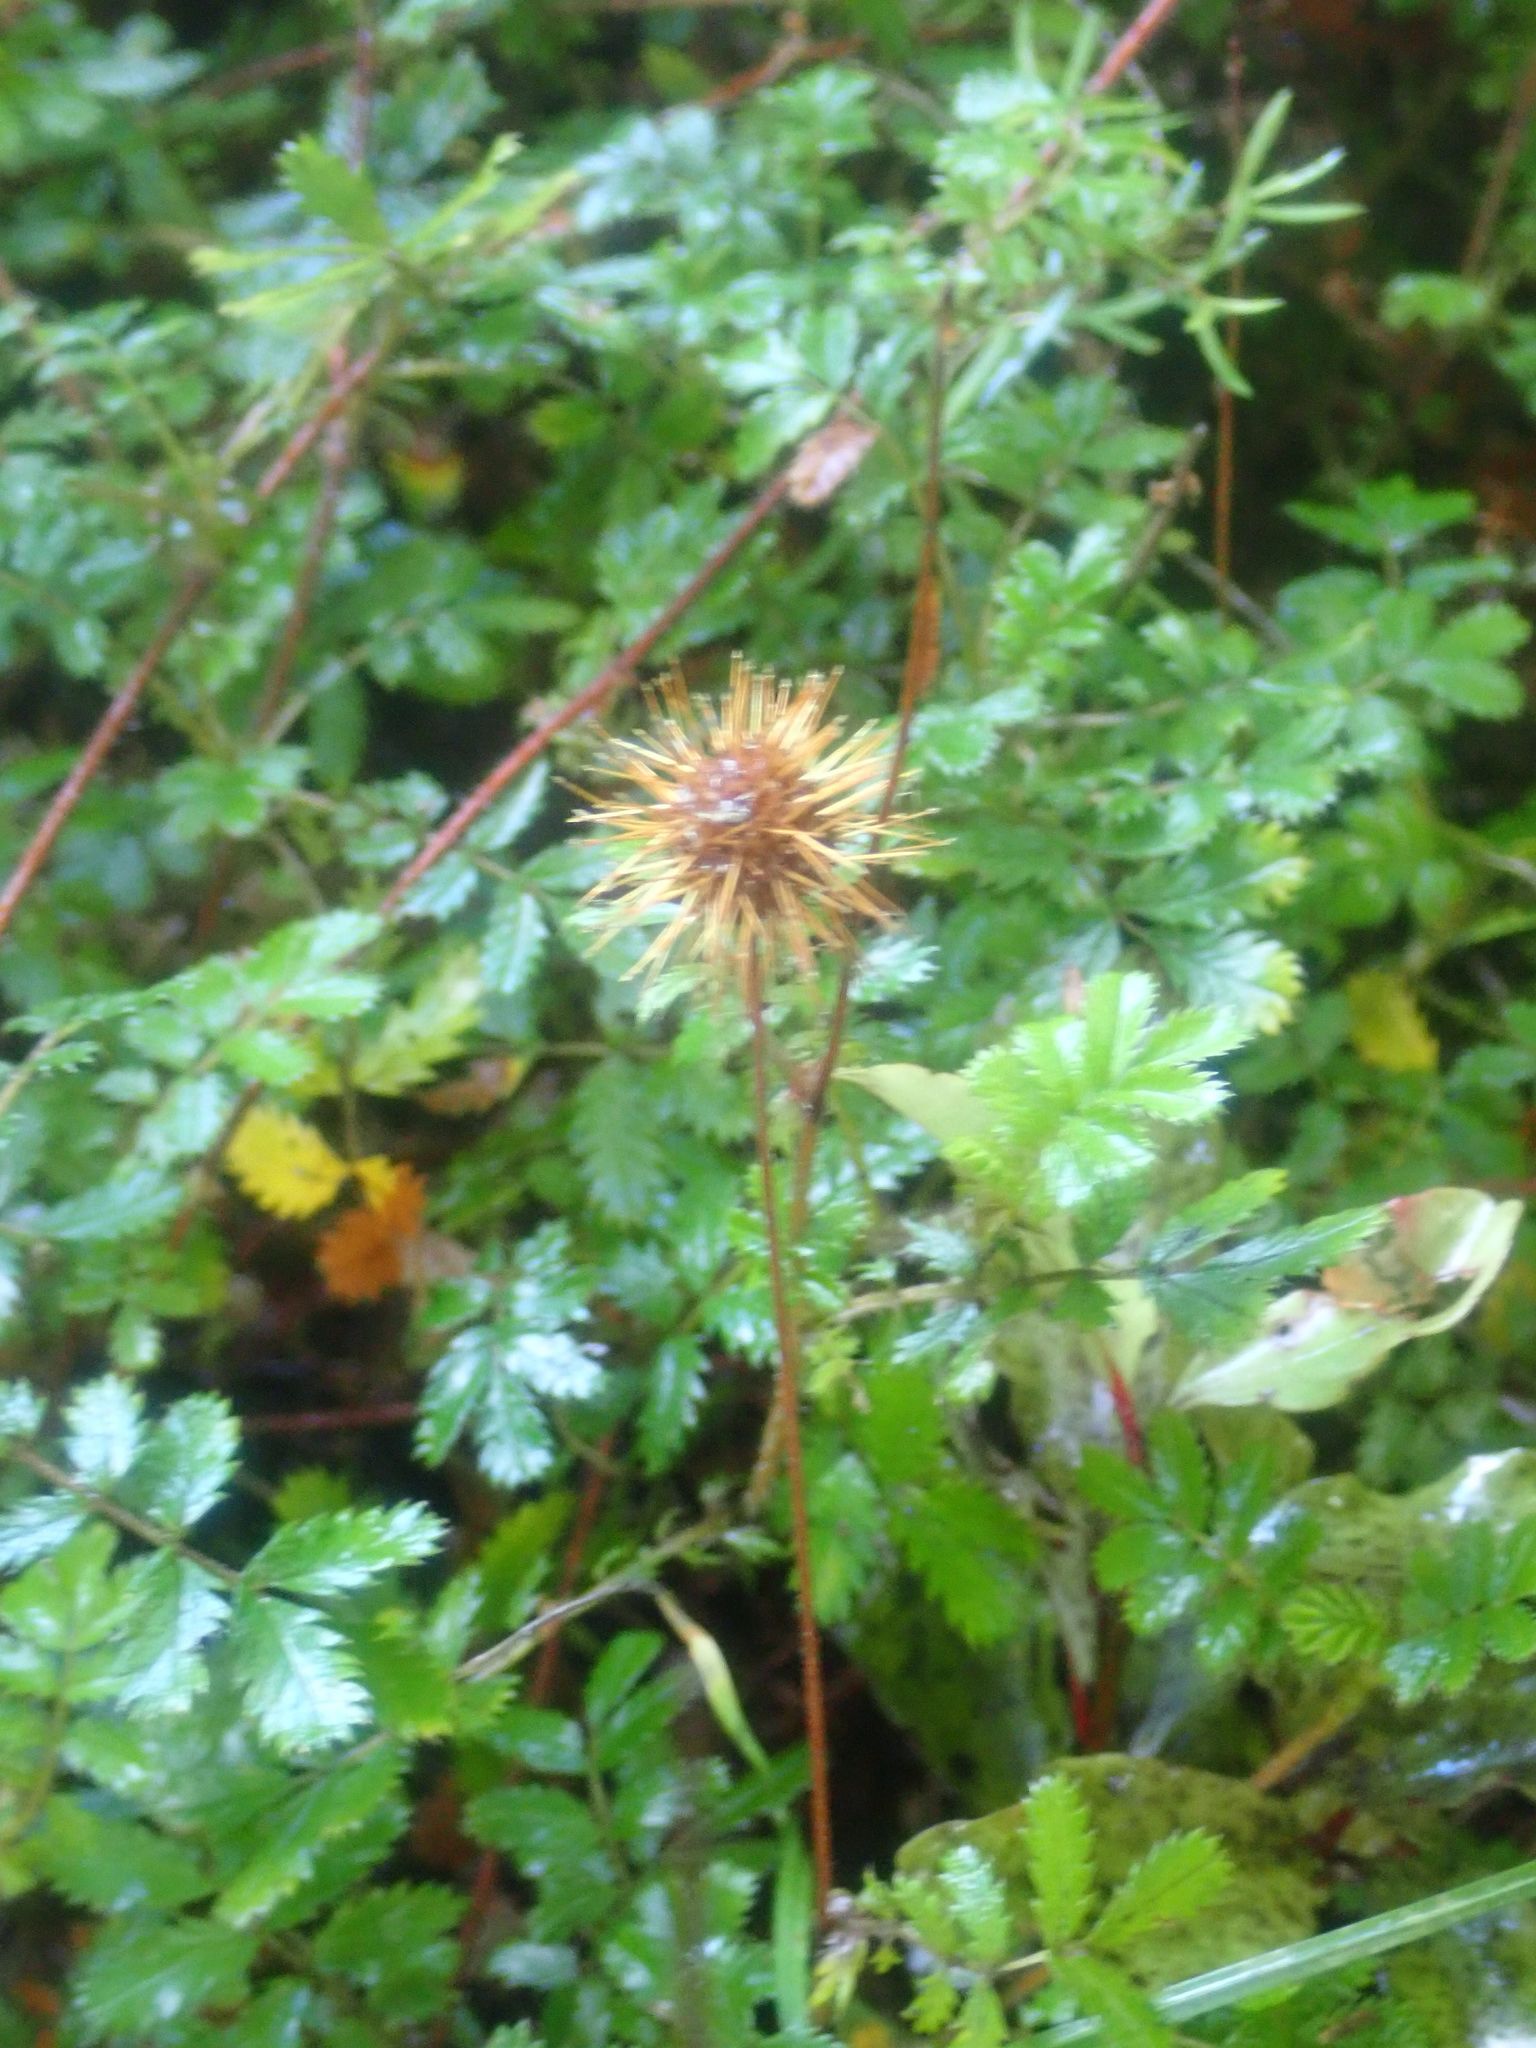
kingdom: Plantae
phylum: Tracheophyta
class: Magnoliopsida
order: Rosales
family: Rosaceae
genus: Acaena
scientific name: Acaena anserinifolia
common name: Bronze pirri-pirri-bur
